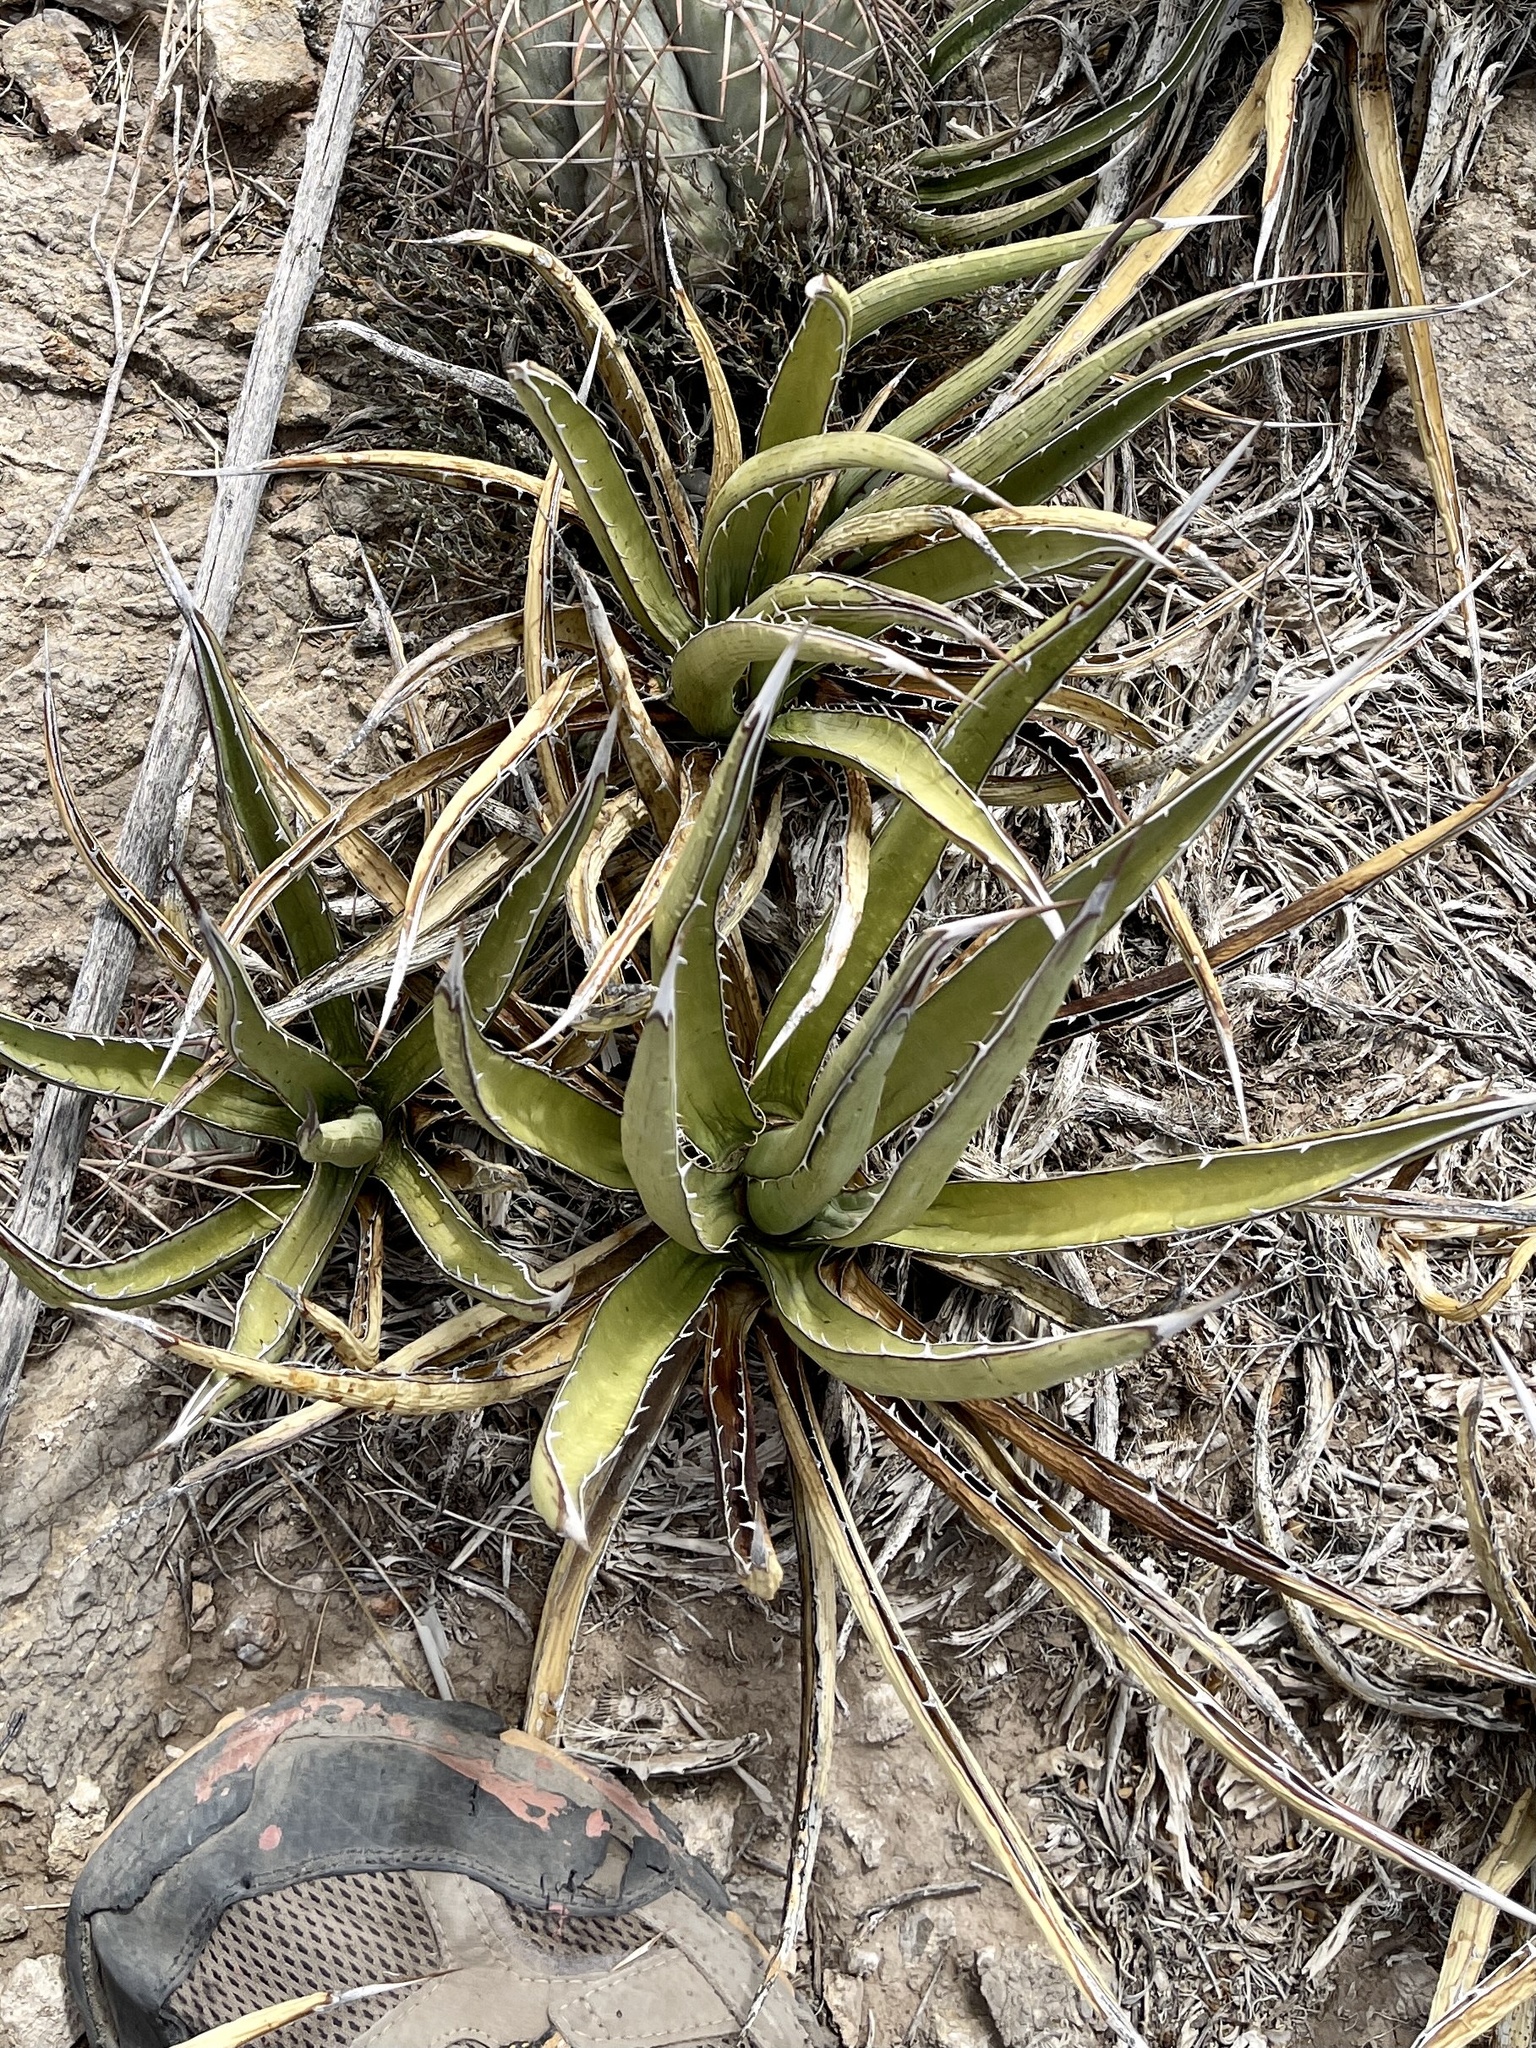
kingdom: Plantae
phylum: Tracheophyta
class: Liliopsida
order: Asparagales
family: Asparagaceae
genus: Agave
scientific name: Agave lechuguilla
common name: Lecheguilla agave
